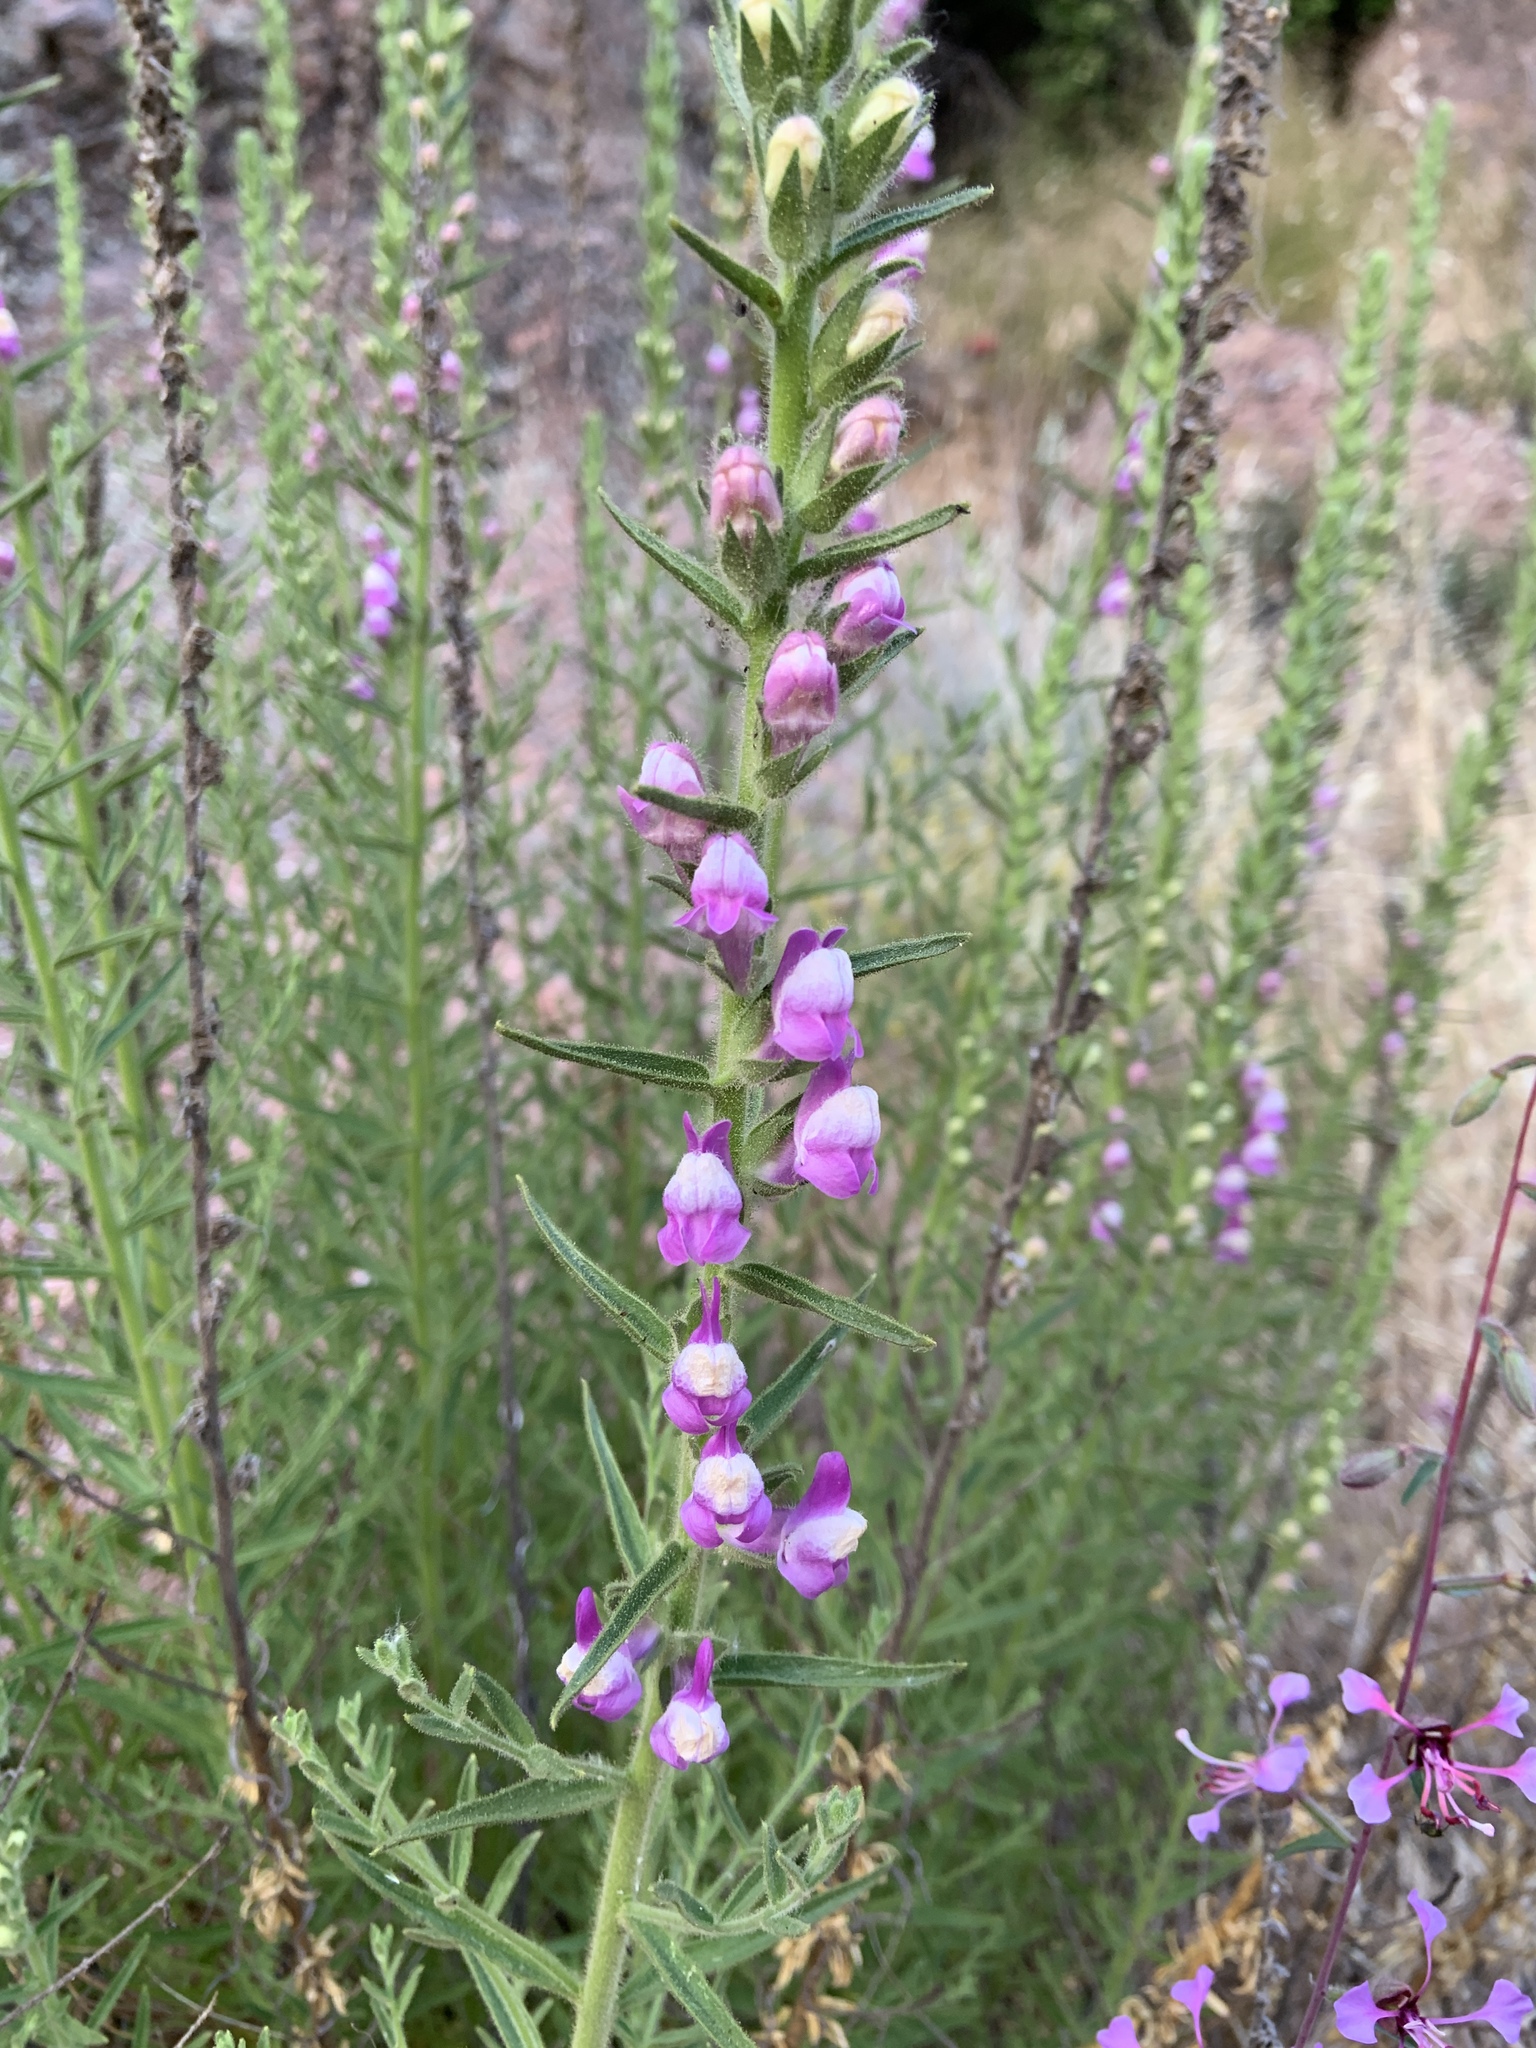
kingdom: Plantae
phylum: Tracheophyta
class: Magnoliopsida
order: Lamiales
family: Plantaginaceae
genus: Sairocarpus
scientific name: Sairocarpus multiflorus
